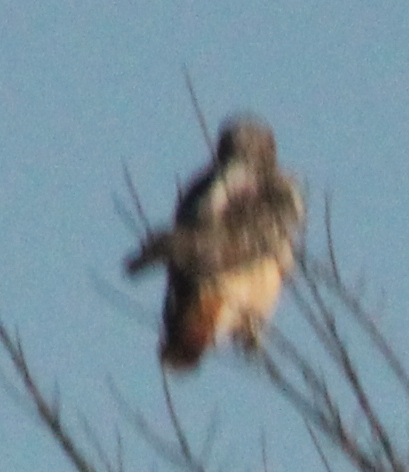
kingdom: Animalia
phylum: Chordata
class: Aves
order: Accipitriformes
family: Accipitridae
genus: Buteo
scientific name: Buteo jamaicensis
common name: Red-tailed hawk
